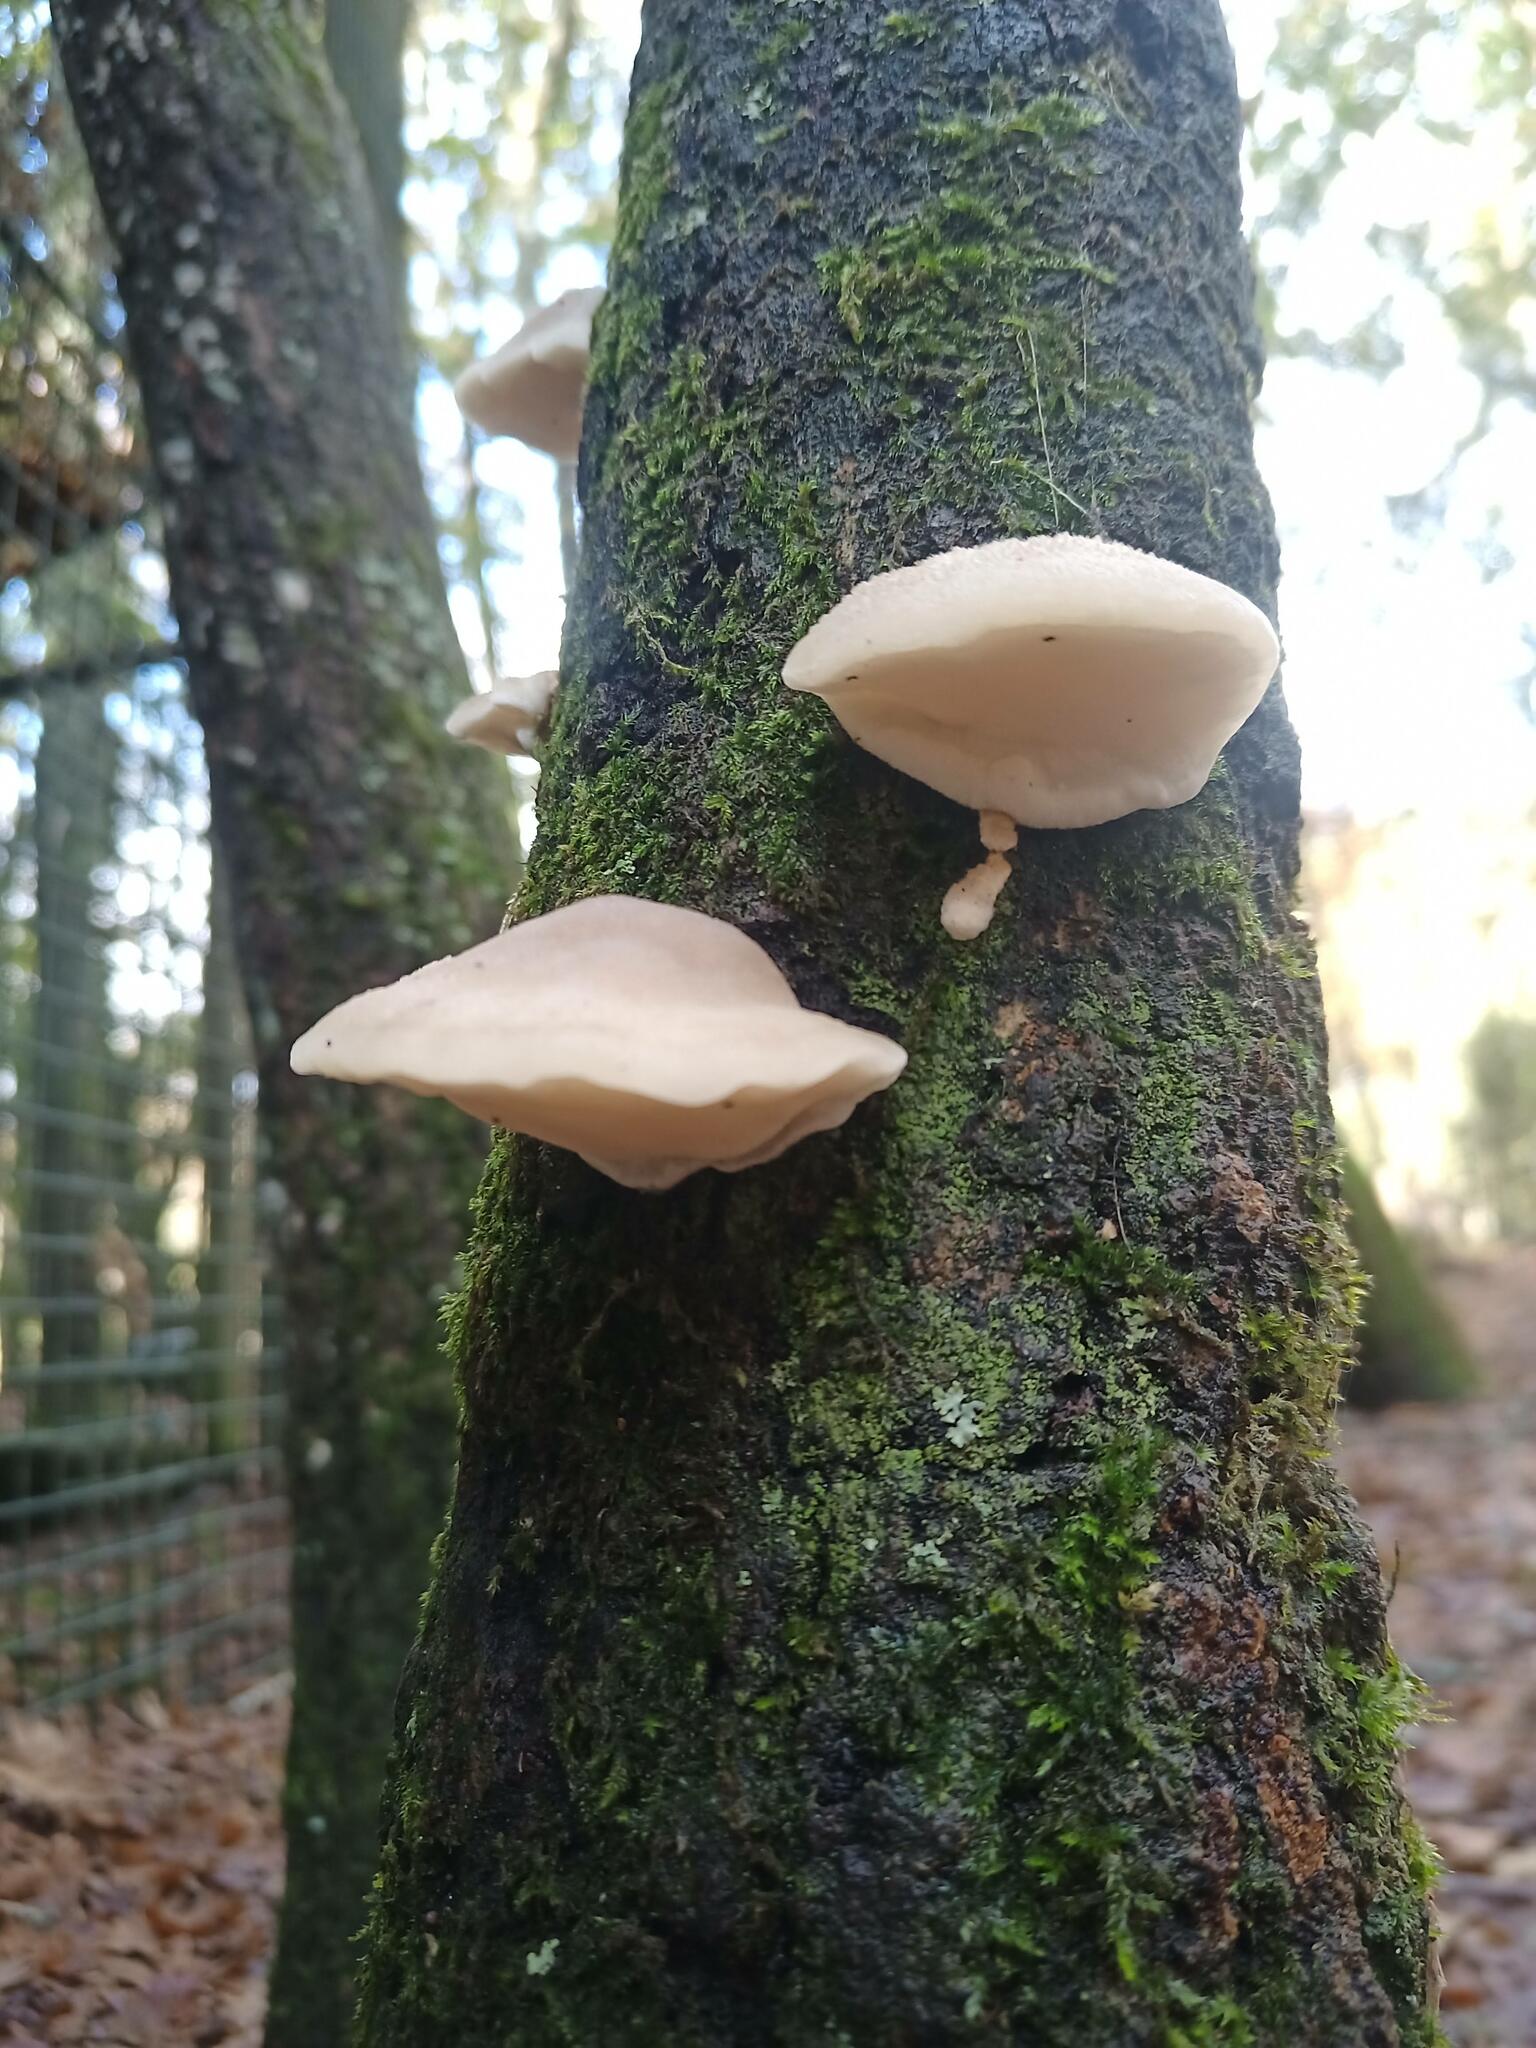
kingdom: Fungi
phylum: Basidiomycota
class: Agaricomycetes
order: Polyporales
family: Fomitopsidaceae
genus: Climacocystis
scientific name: Climacocystis borealis
